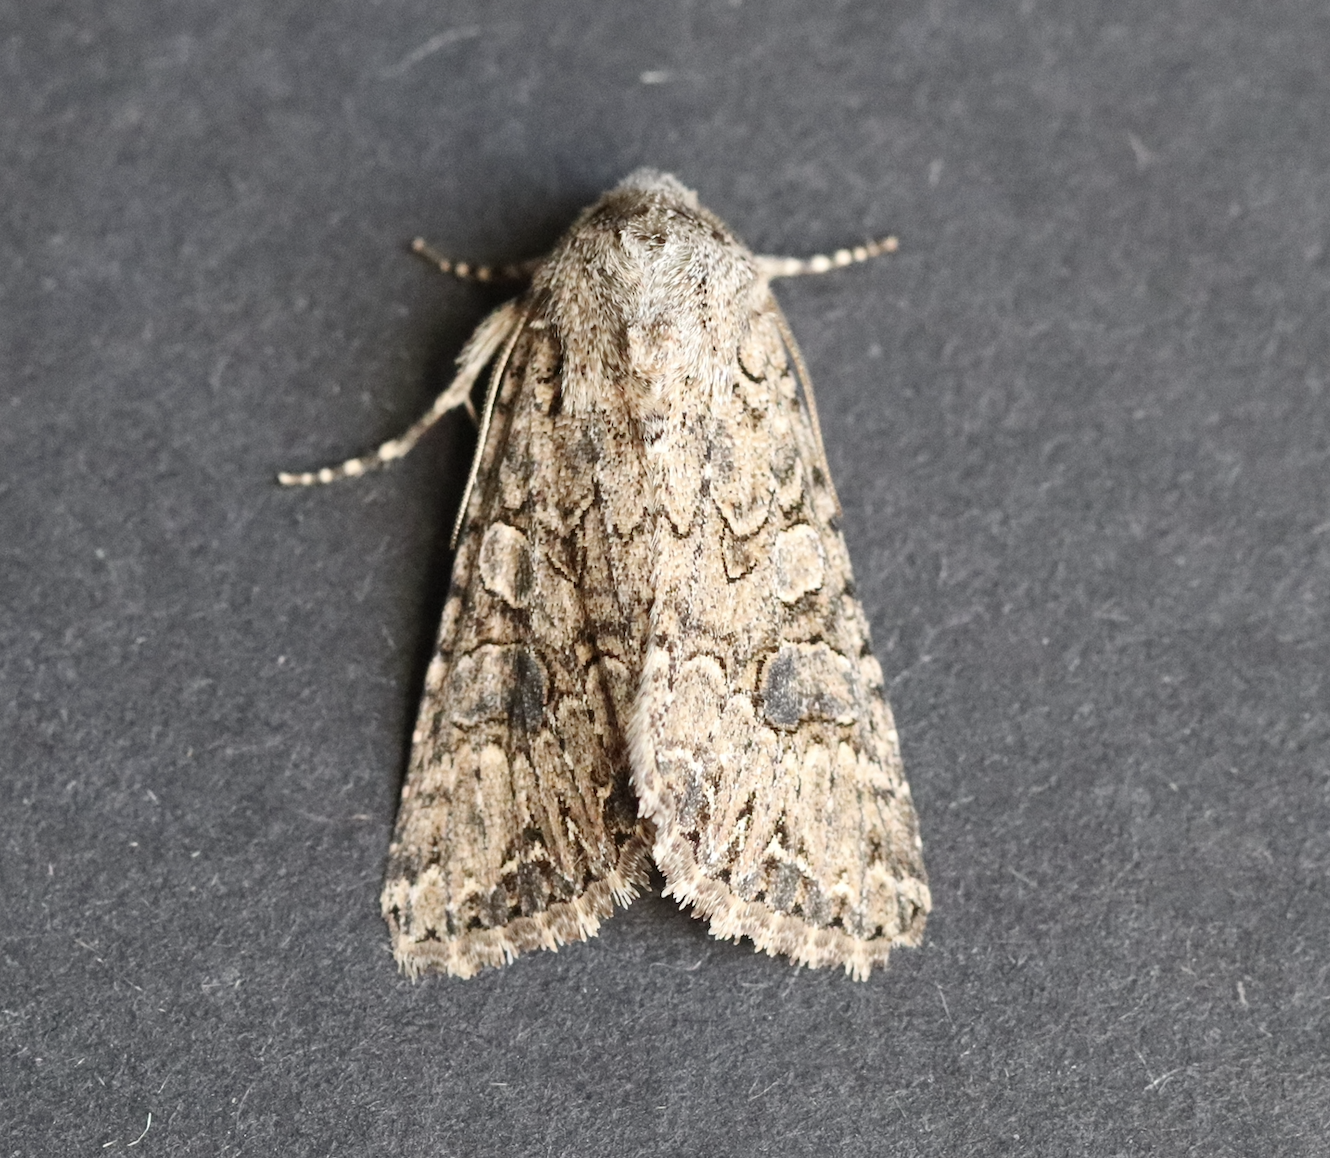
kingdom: Animalia
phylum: Arthropoda
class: Insecta
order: Lepidoptera
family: Noctuidae
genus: Anarta
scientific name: Anarta trifolii
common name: Clover cutworm moth
